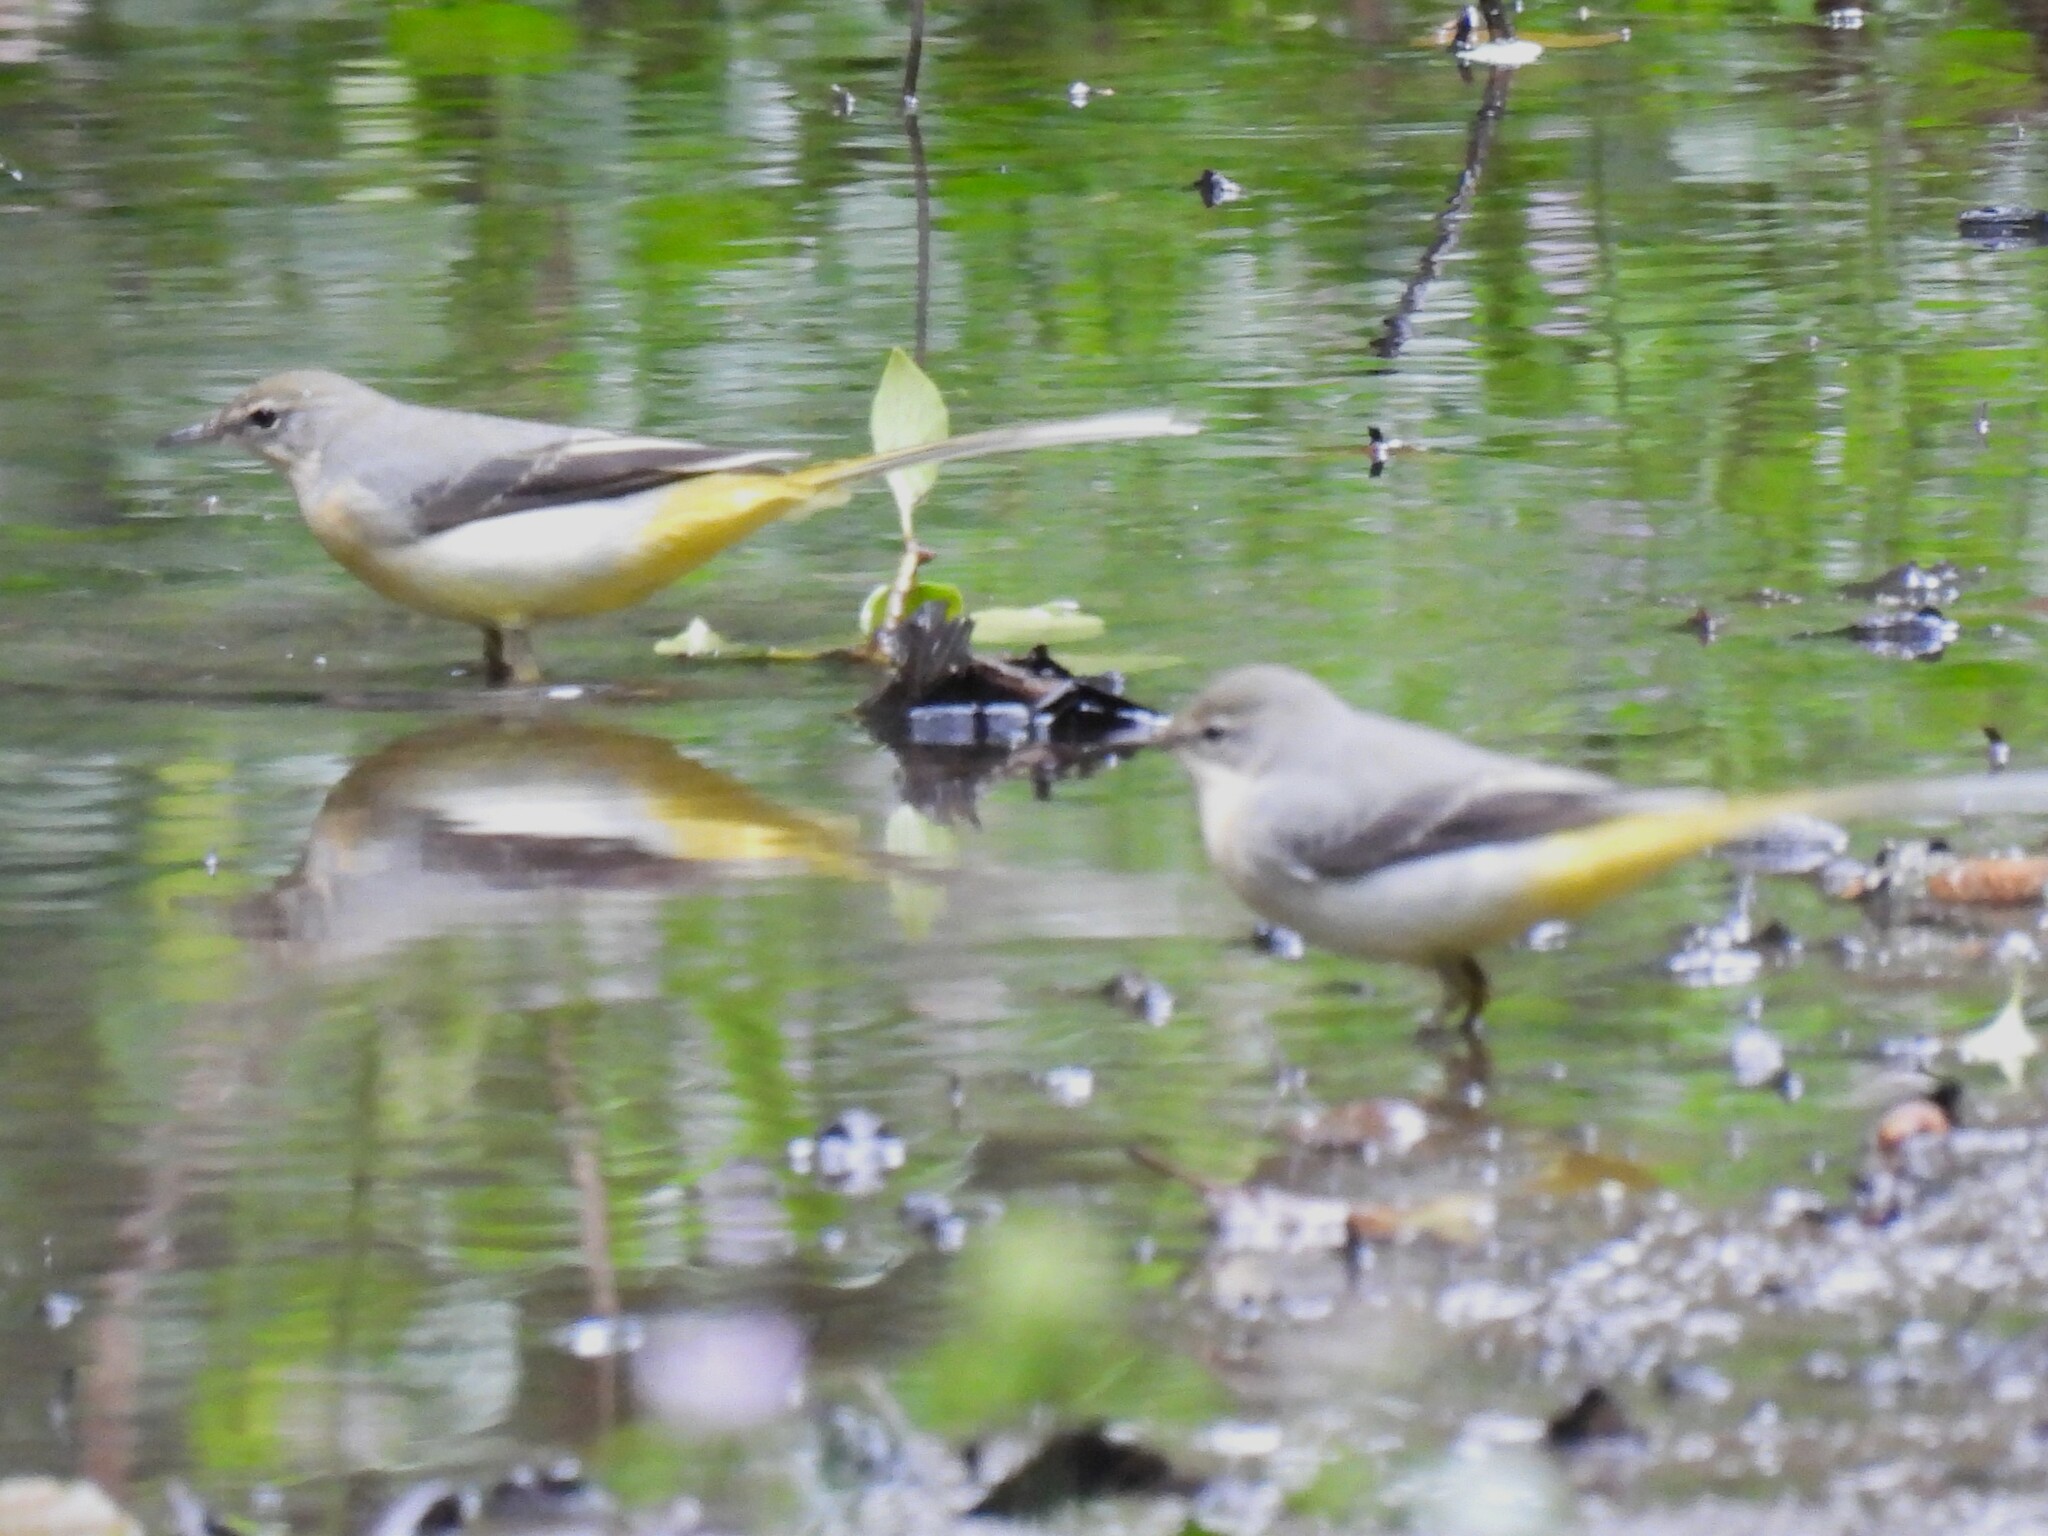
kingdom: Animalia
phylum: Chordata
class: Aves
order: Passeriformes
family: Motacillidae
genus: Motacilla
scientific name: Motacilla cinerea
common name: Grey wagtail
